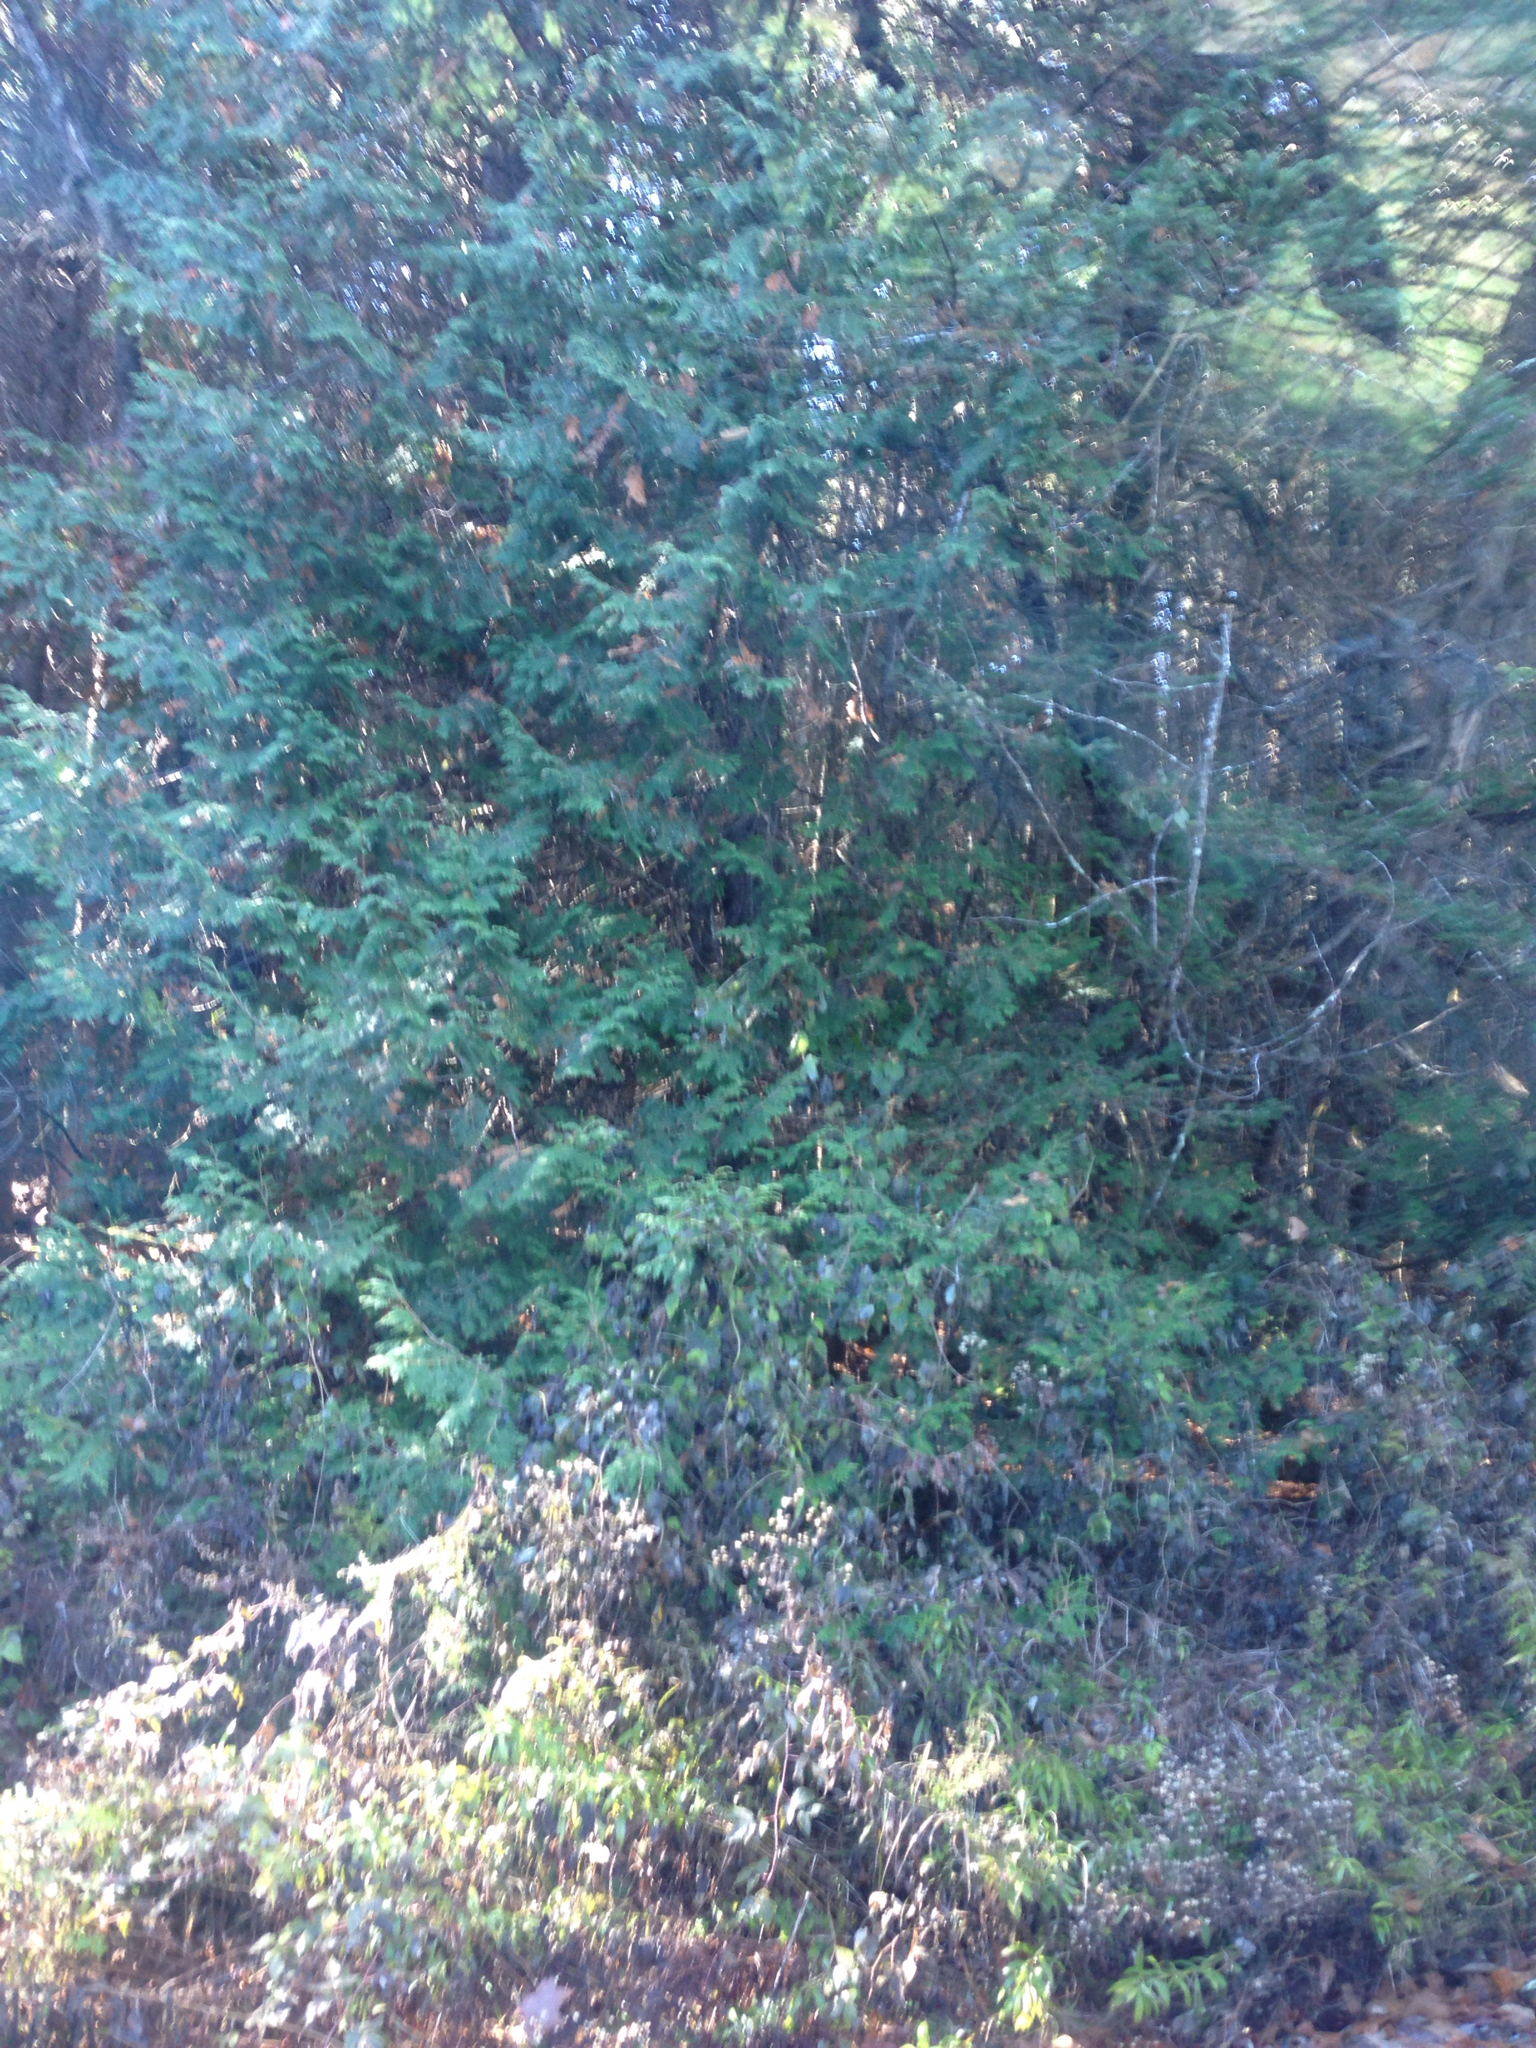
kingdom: Plantae
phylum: Tracheophyta
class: Pinopsida
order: Pinales
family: Cupressaceae
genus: Thuja
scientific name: Thuja occidentalis
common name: Northern white-cedar
